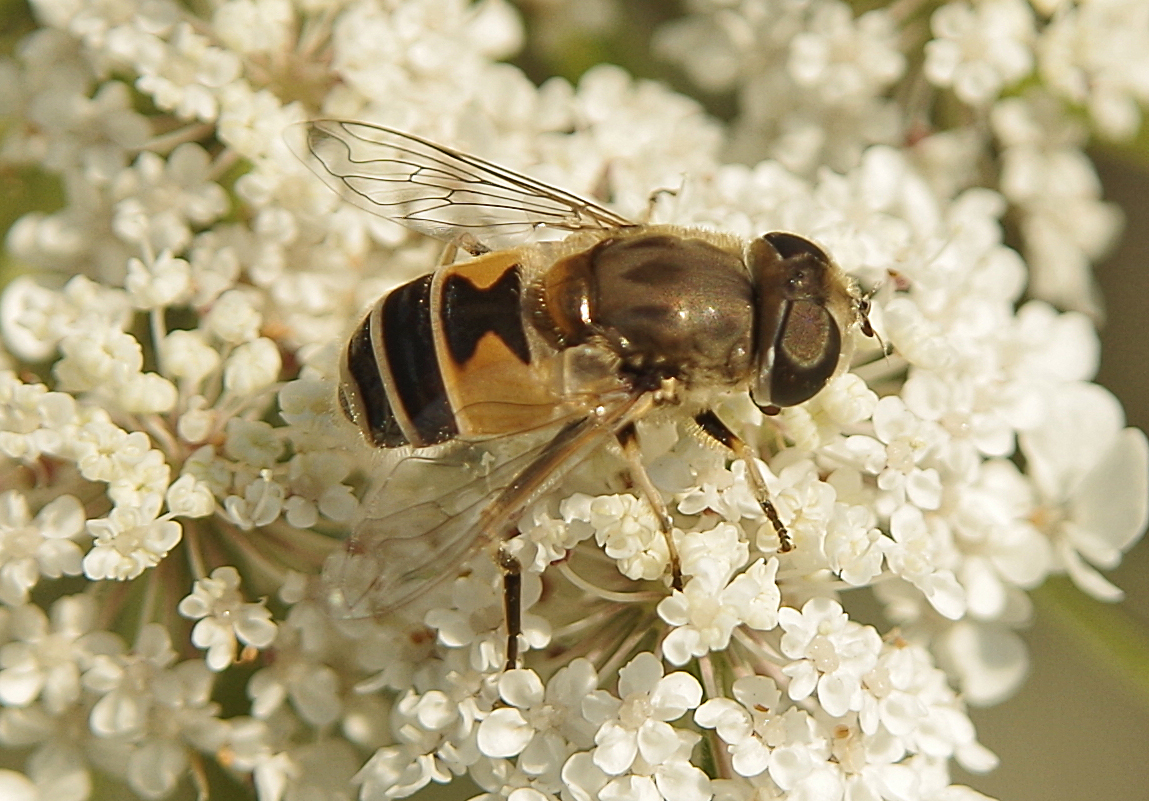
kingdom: Animalia
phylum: Arthropoda
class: Insecta
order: Diptera
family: Syrphidae
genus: Eristalis
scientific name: Eristalis arbustorum
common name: Hover fly
